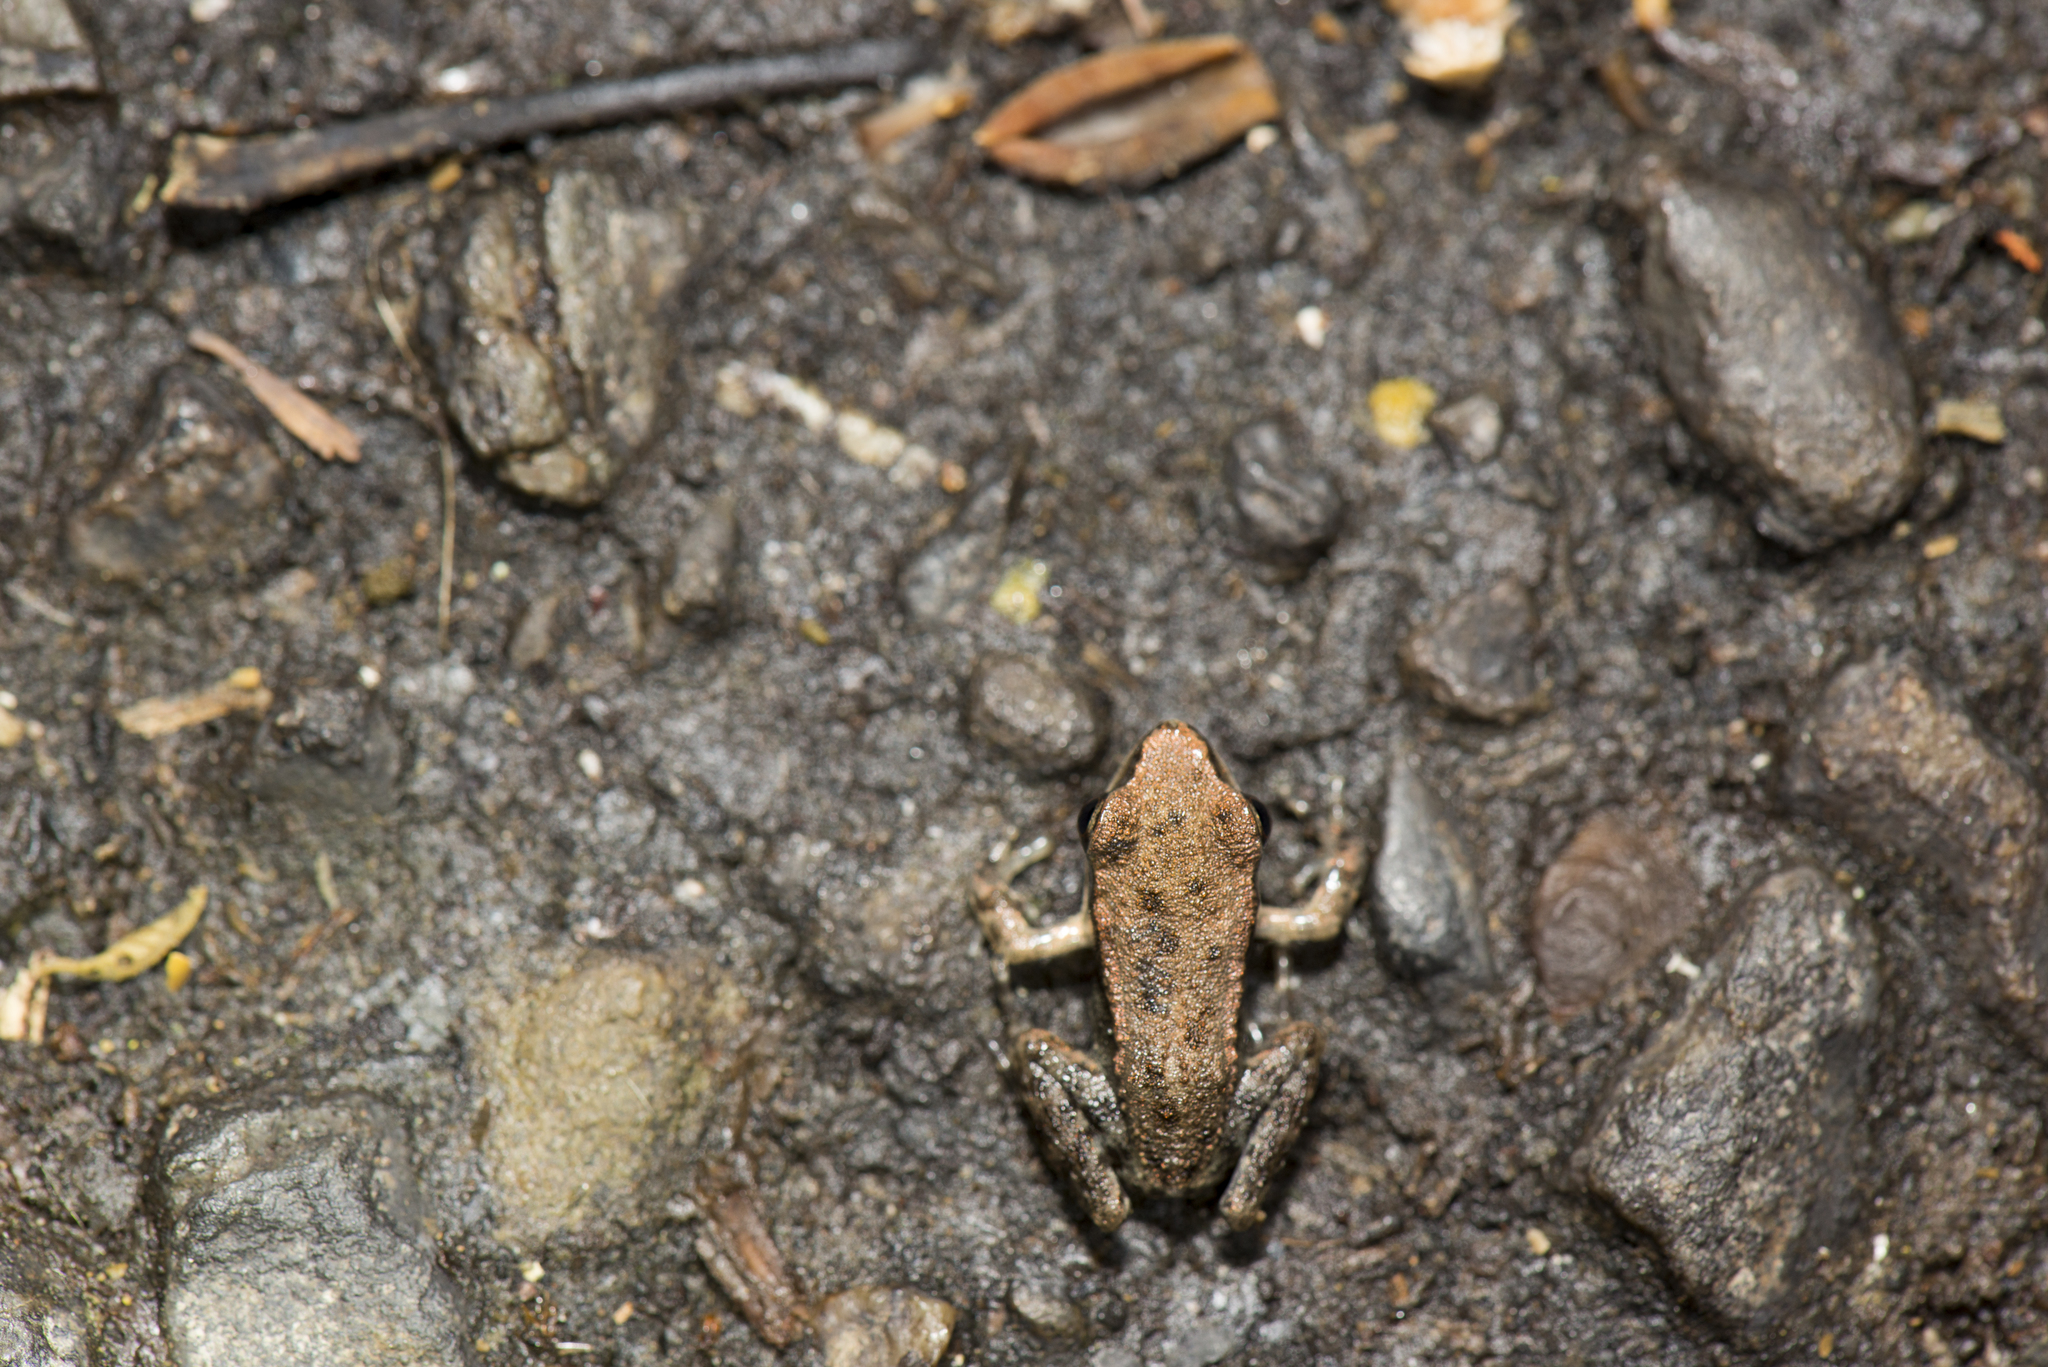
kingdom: Animalia
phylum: Chordata
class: Amphibia
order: Anura
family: Ranidae
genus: Hylarana
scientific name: Hylarana latouchii
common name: Broad-folded frog
